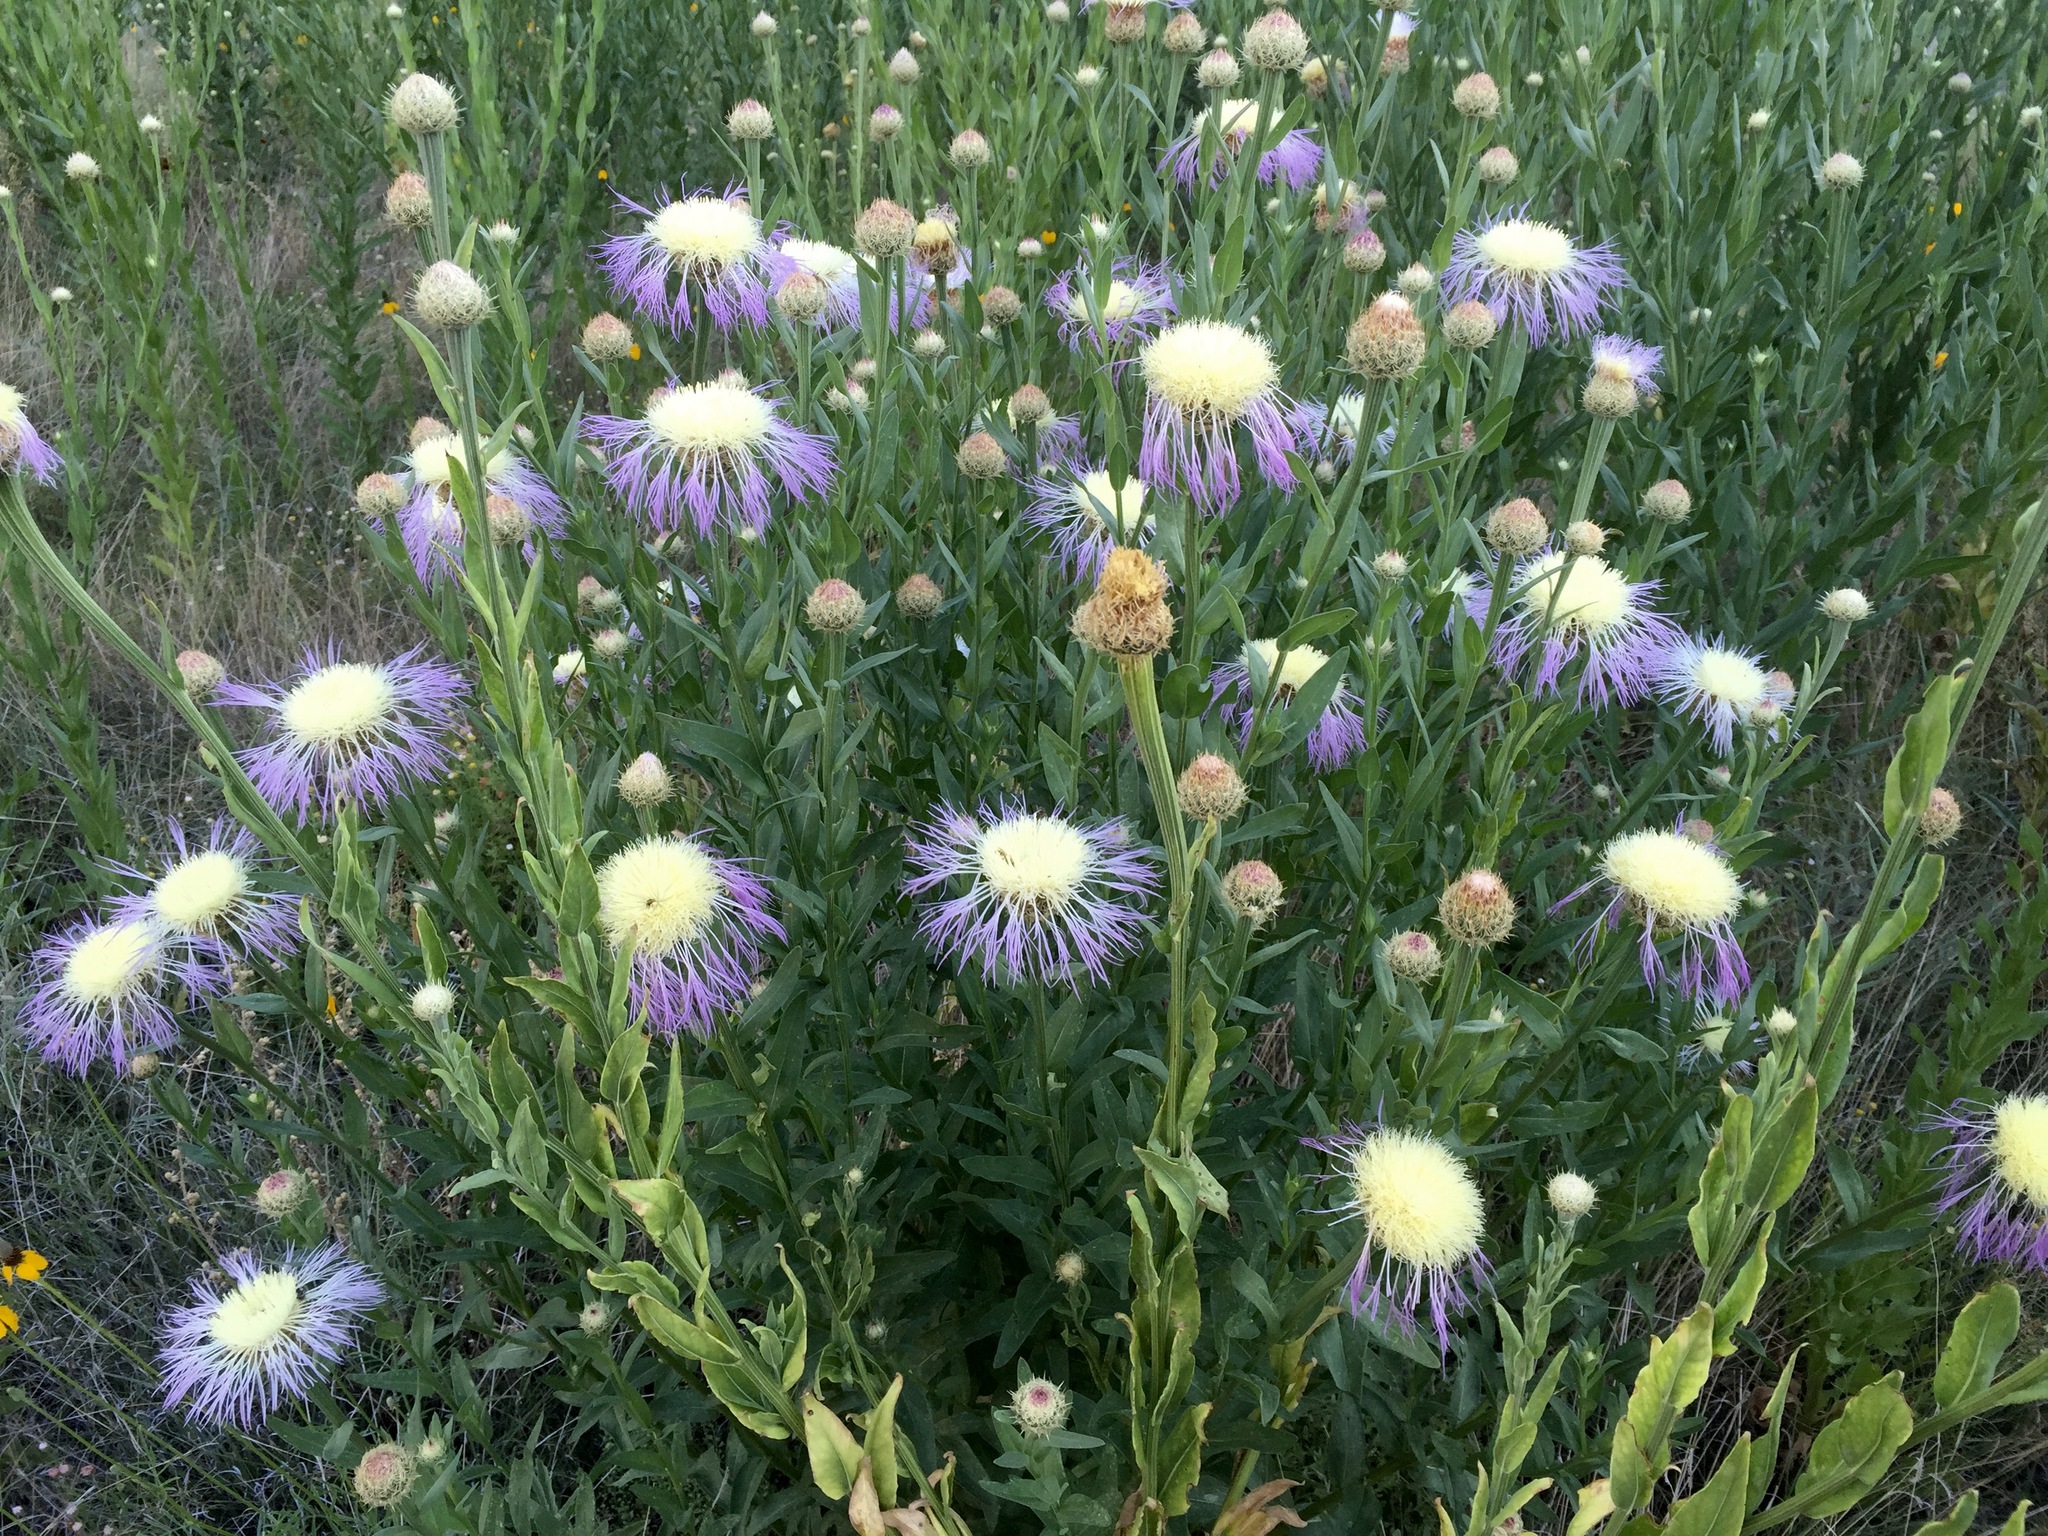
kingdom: Plantae
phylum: Tracheophyta
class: Magnoliopsida
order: Asterales
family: Asteraceae
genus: Plectocephalus
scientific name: Plectocephalus americanus
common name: American basket-flower
